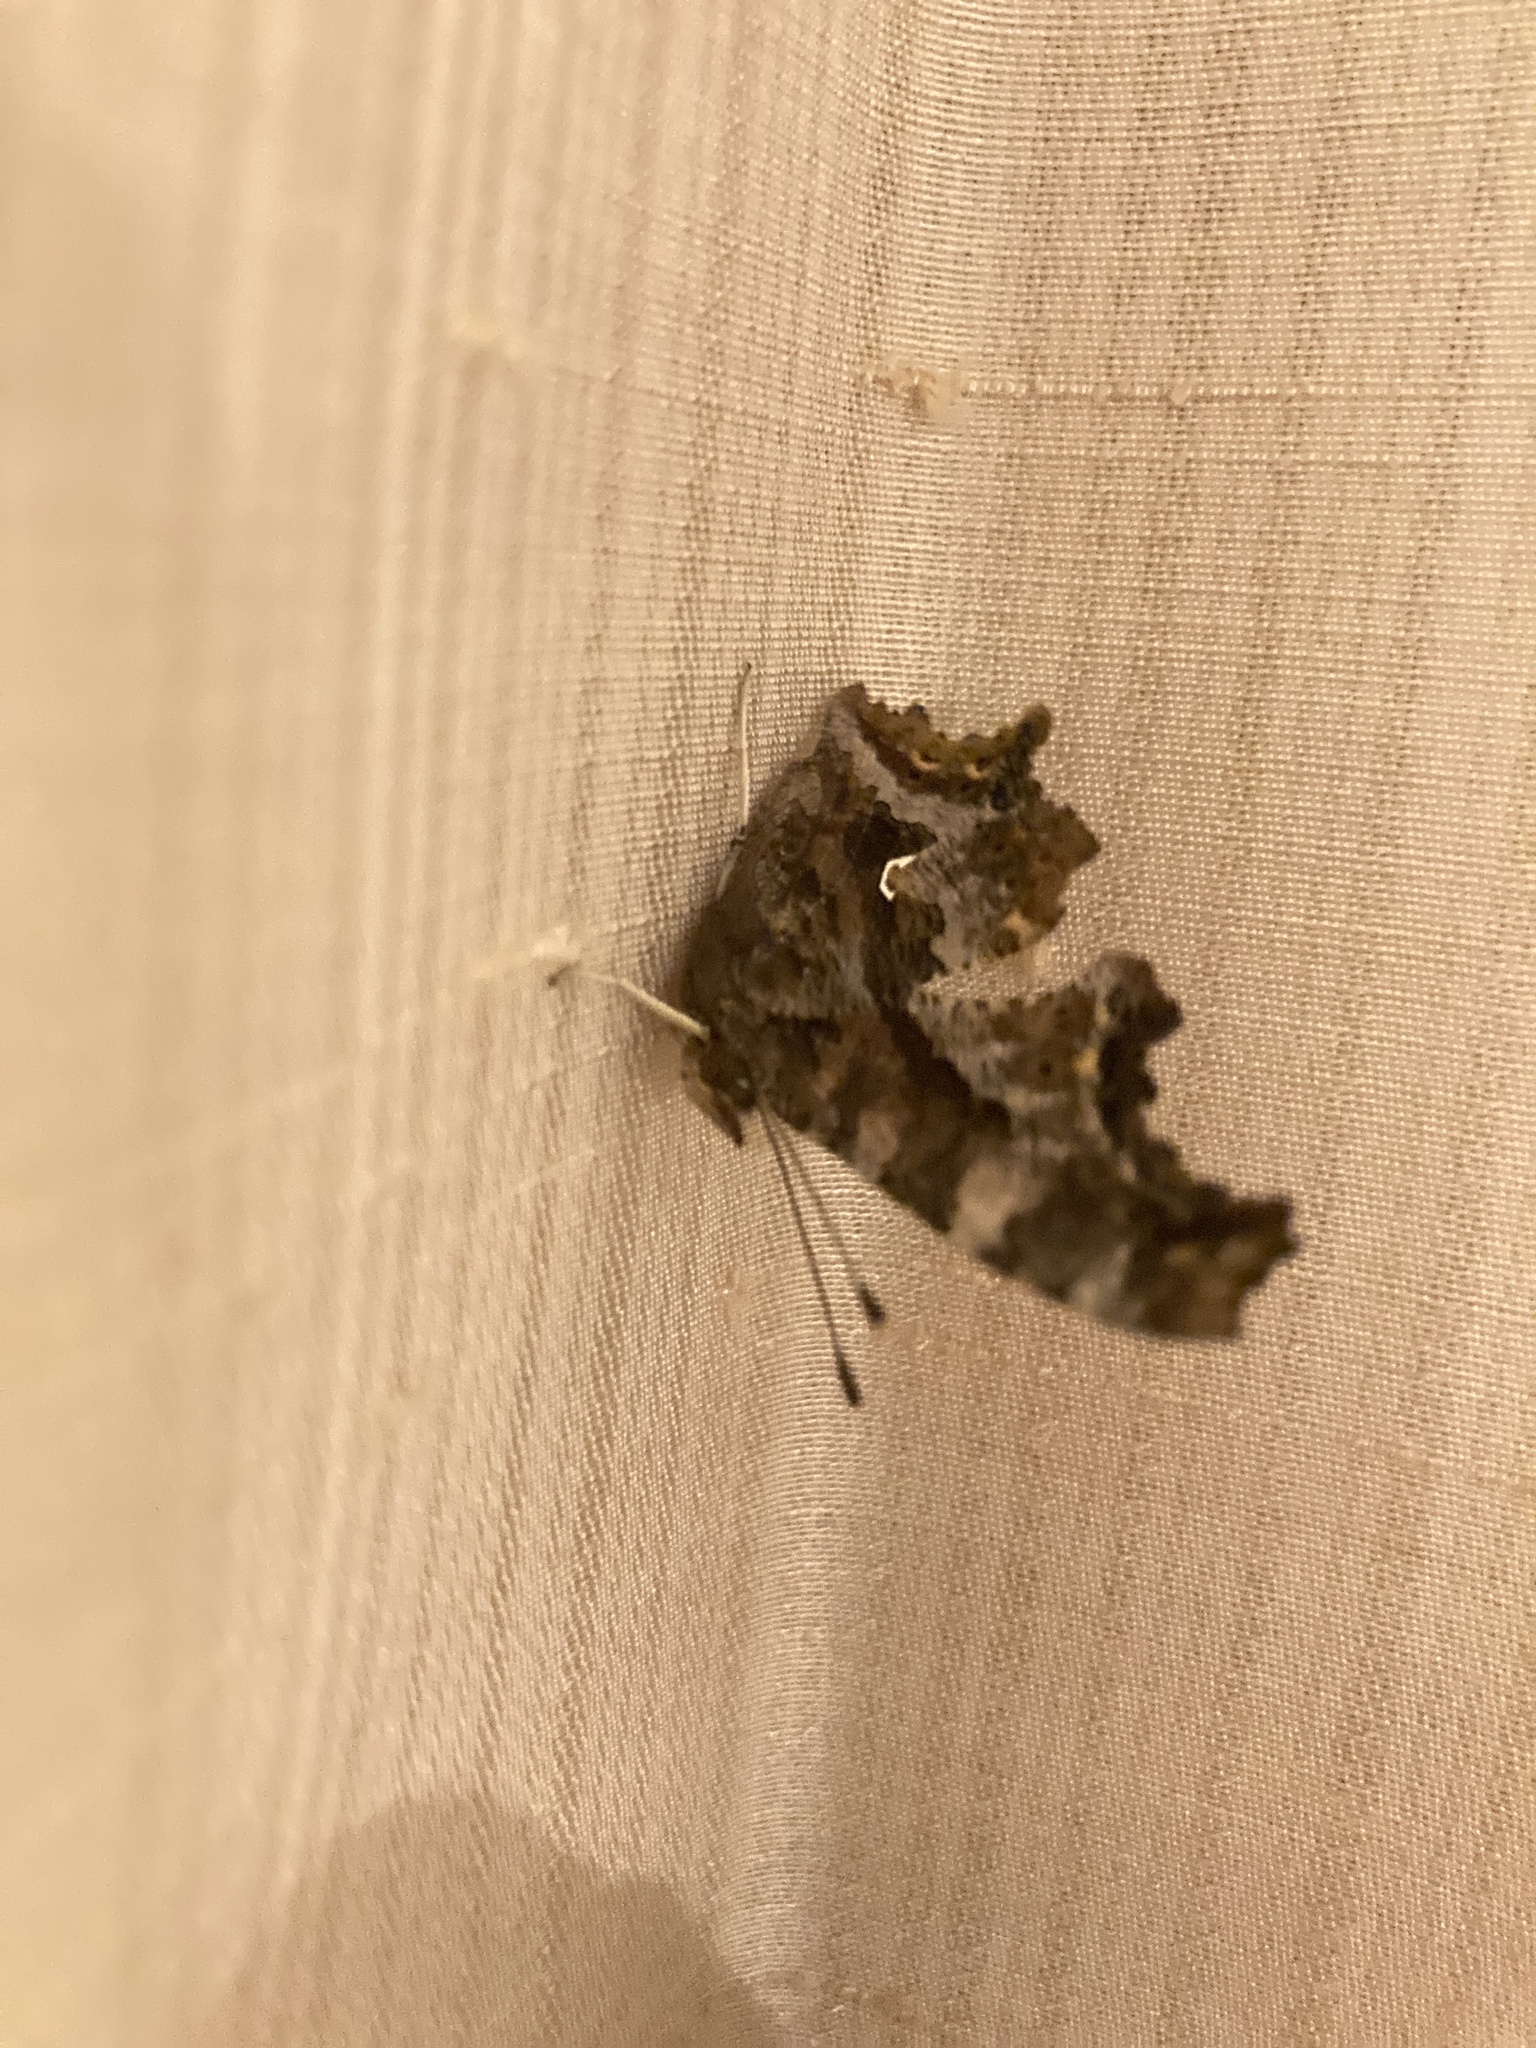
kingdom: Animalia
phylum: Arthropoda
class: Insecta
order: Lepidoptera
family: Nymphalidae
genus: Polygonia
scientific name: Polygonia comma
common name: Eastern comma
